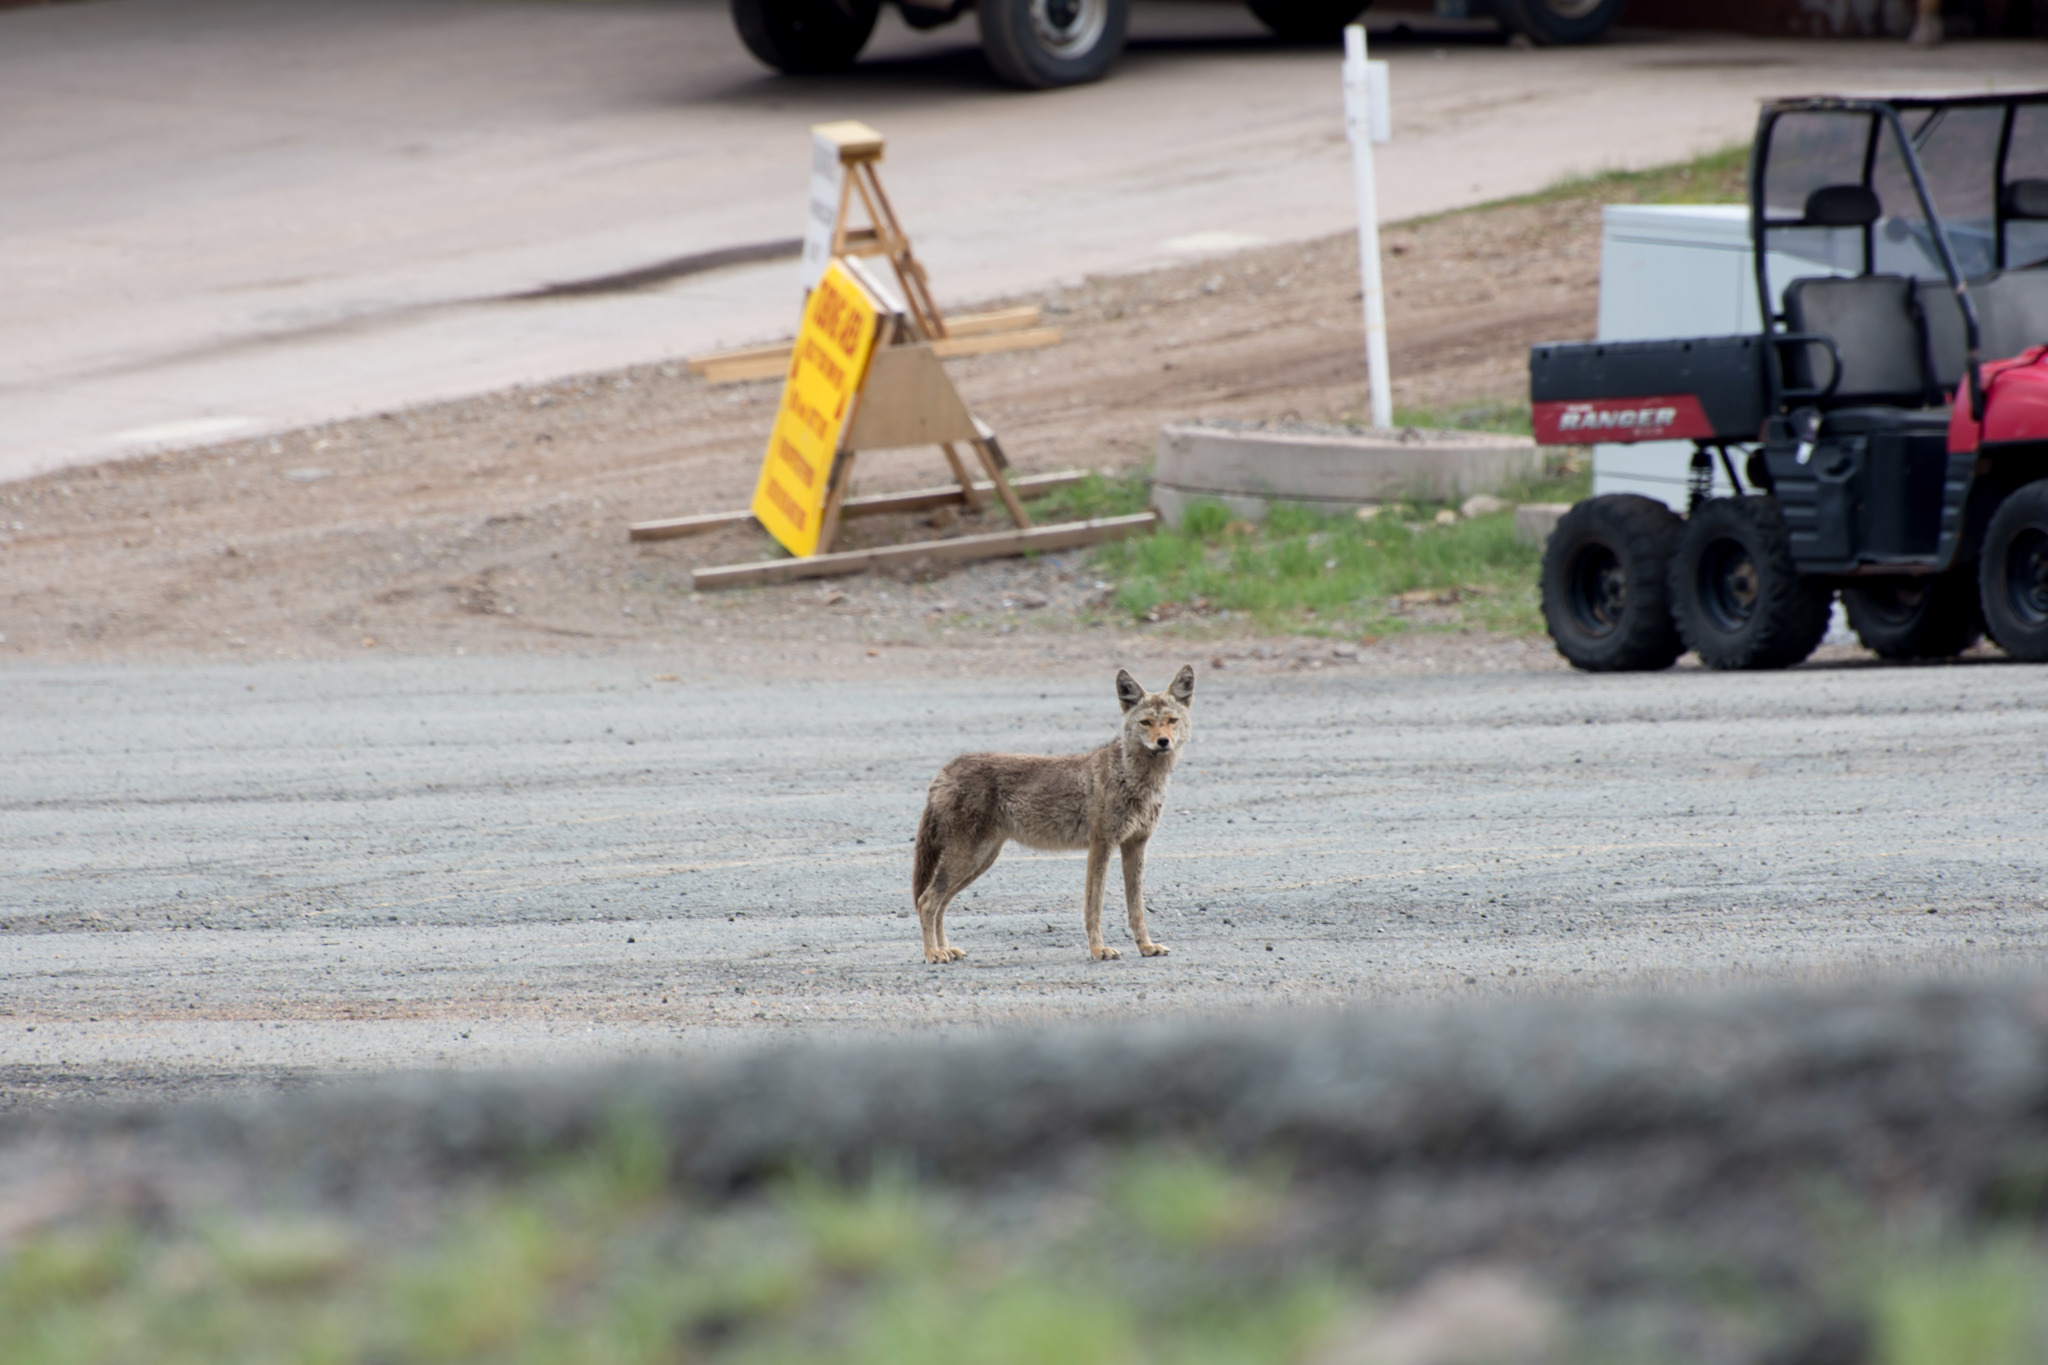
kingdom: Animalia
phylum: Chordata
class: Mammalia
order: Carnivora
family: Canidae
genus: Canis
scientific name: Canis latrans
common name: Coyote
